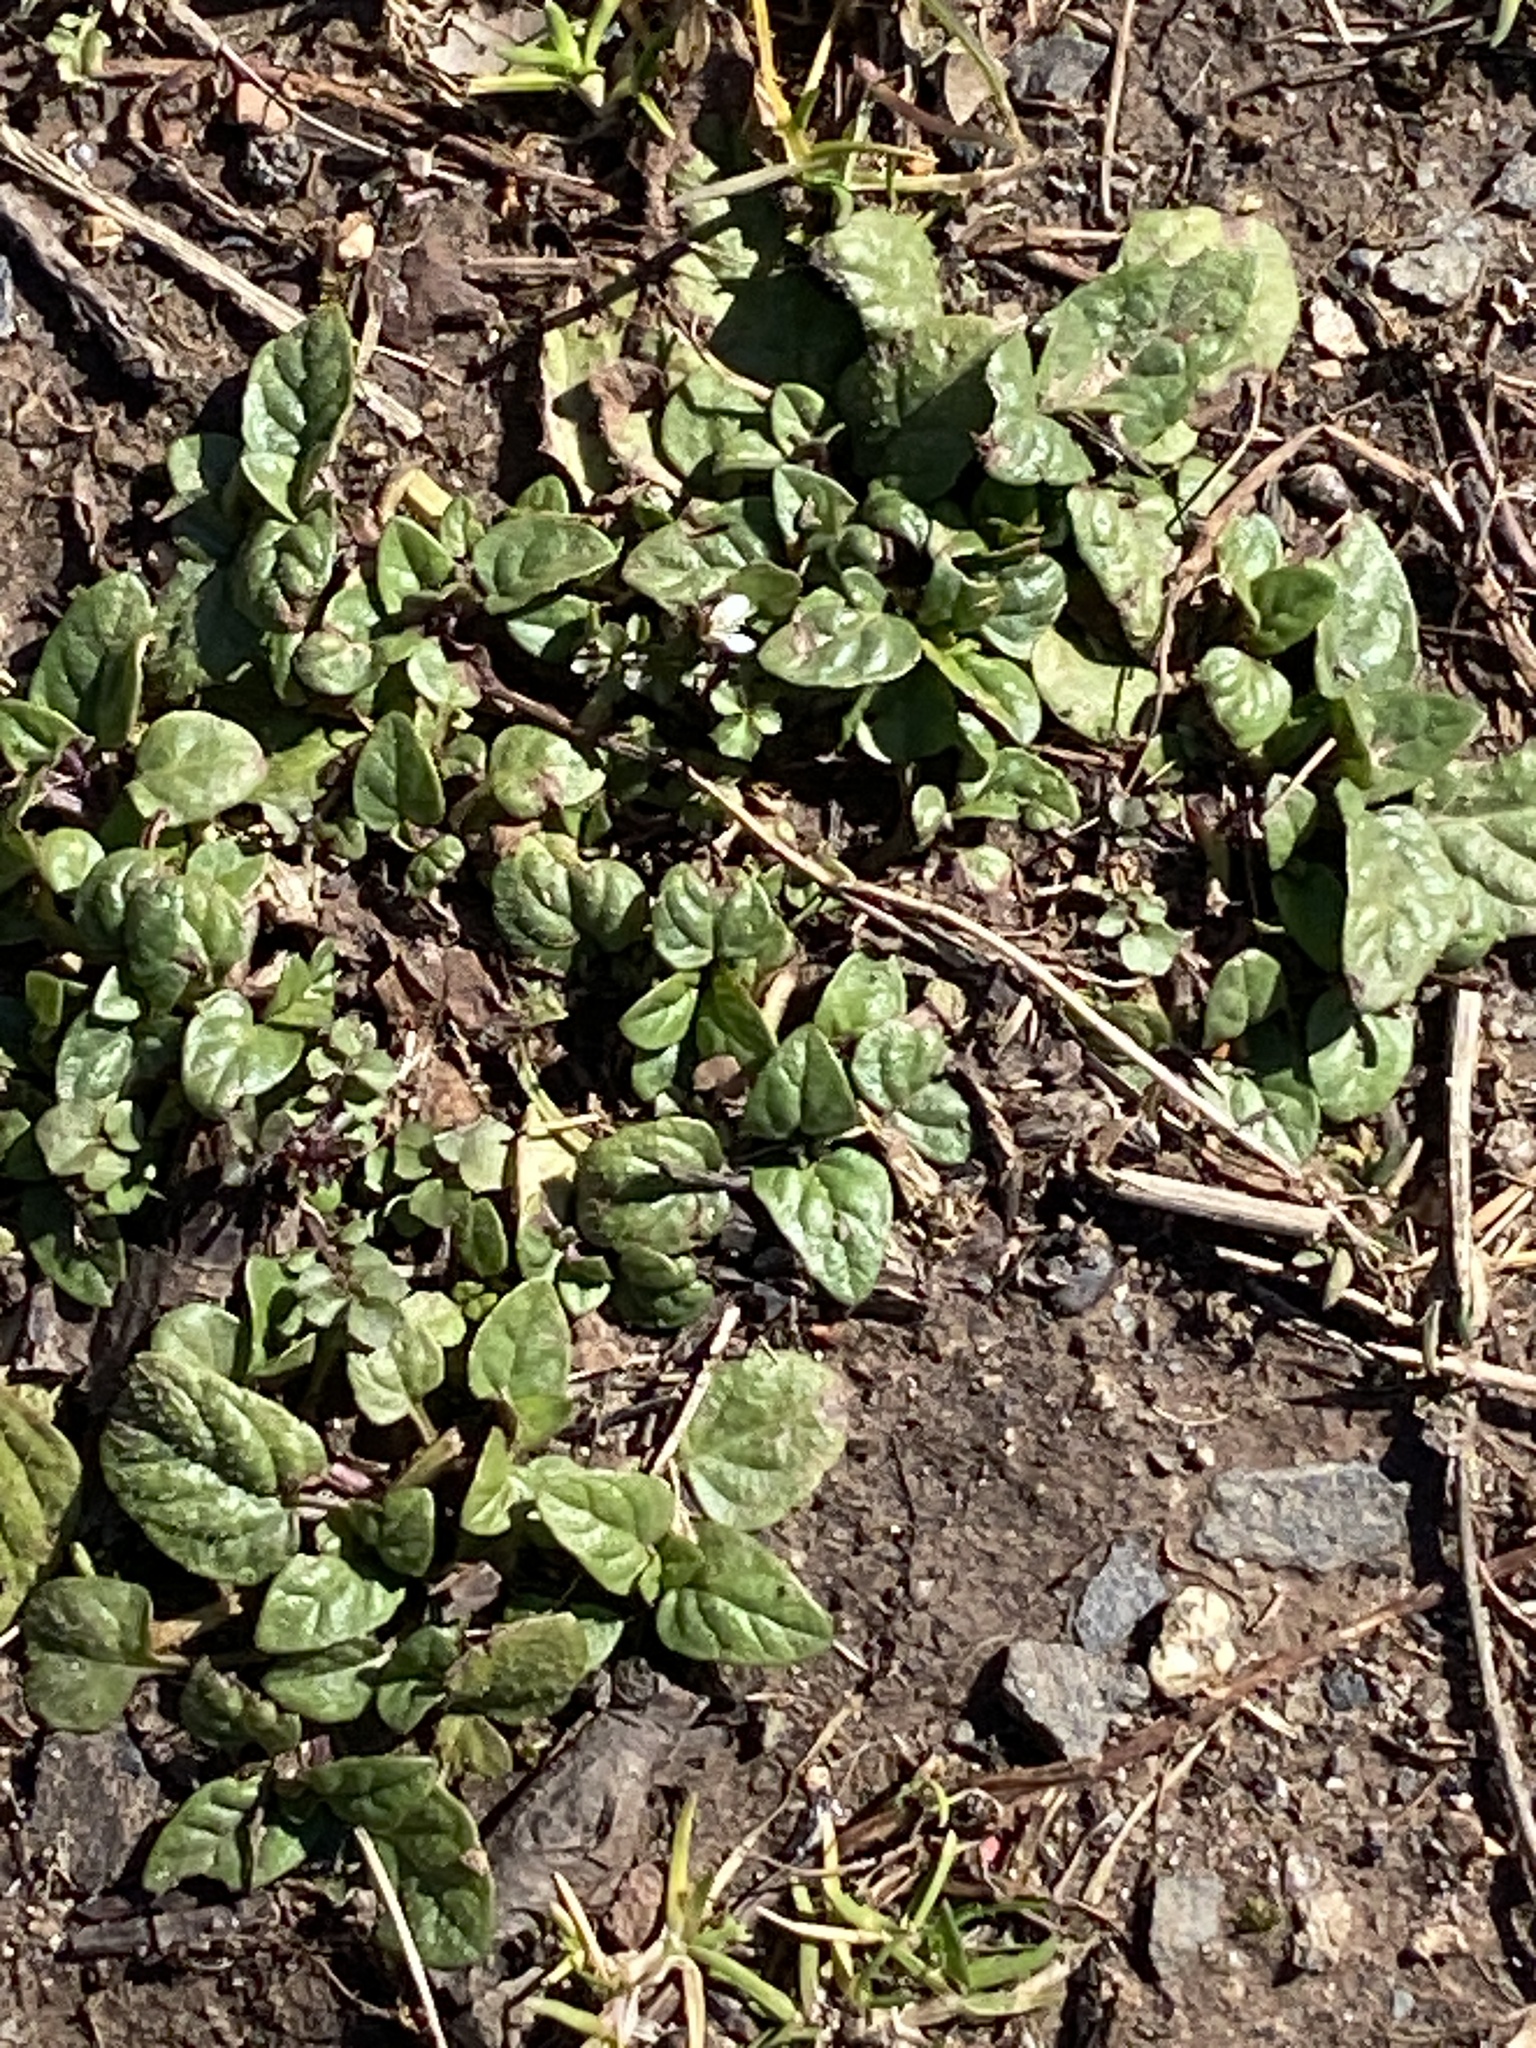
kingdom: Plantae
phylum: Tracheophyta
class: Magnoliopsida
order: Lamiales
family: Lamiaceae
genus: Prunella
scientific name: Prunella vulgaris
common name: Heal-all
